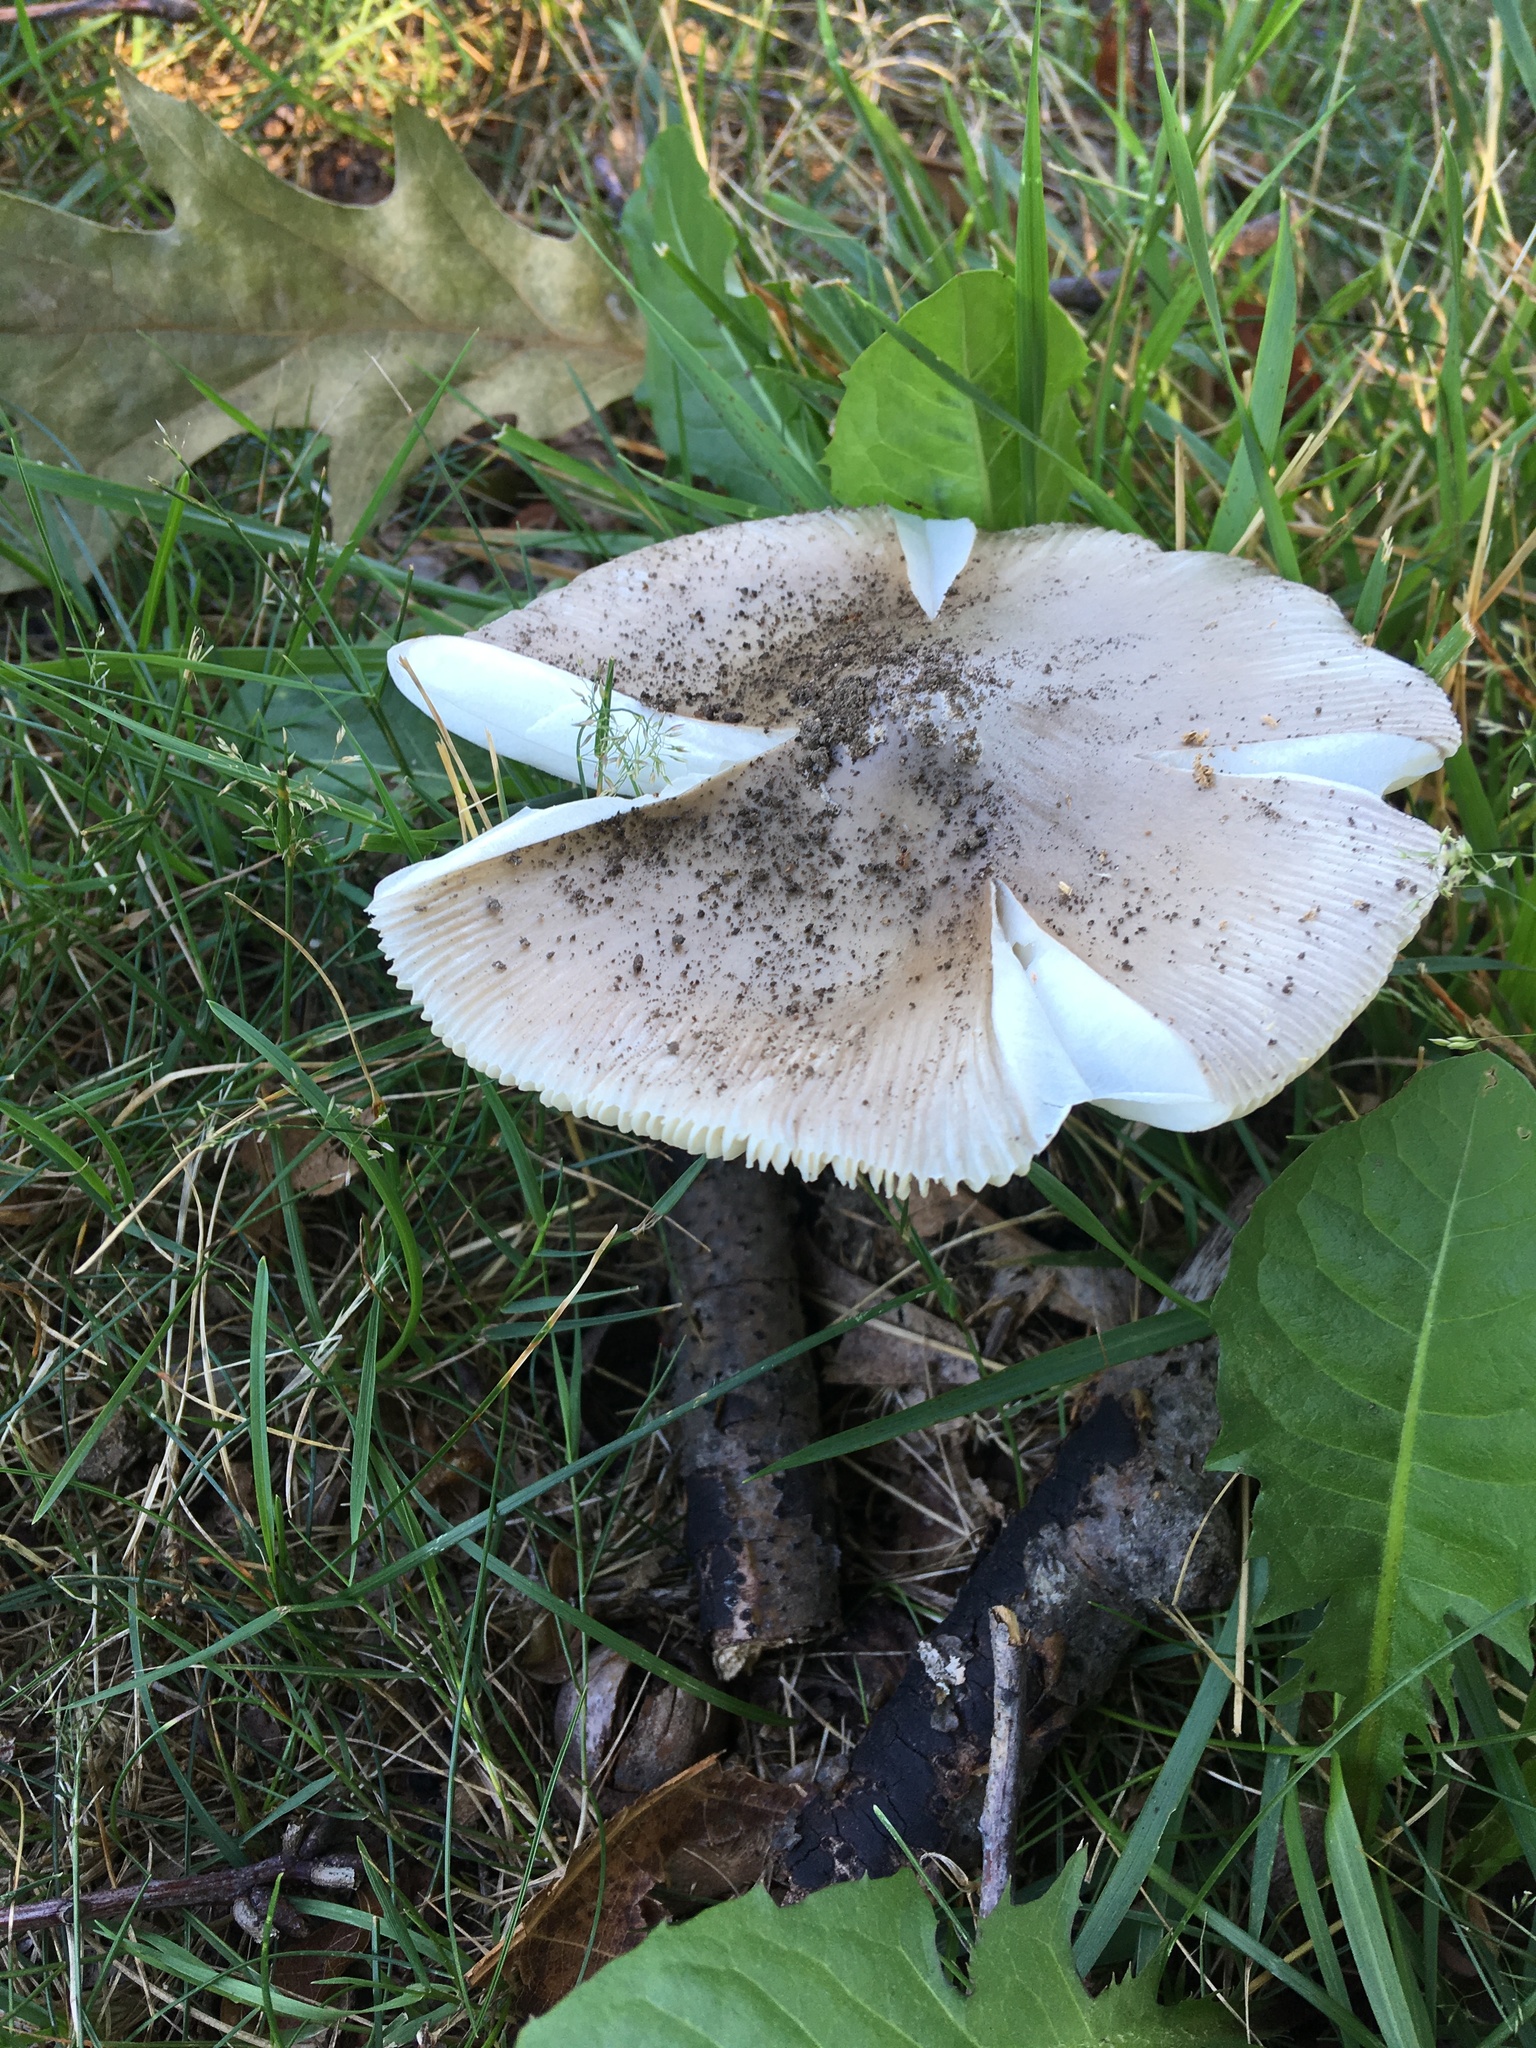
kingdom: Fungi
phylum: Basidiomycota
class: Agaricomycetes
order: Agaricales
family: Amanitaceae
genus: Amanita
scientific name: Amanita spreta
